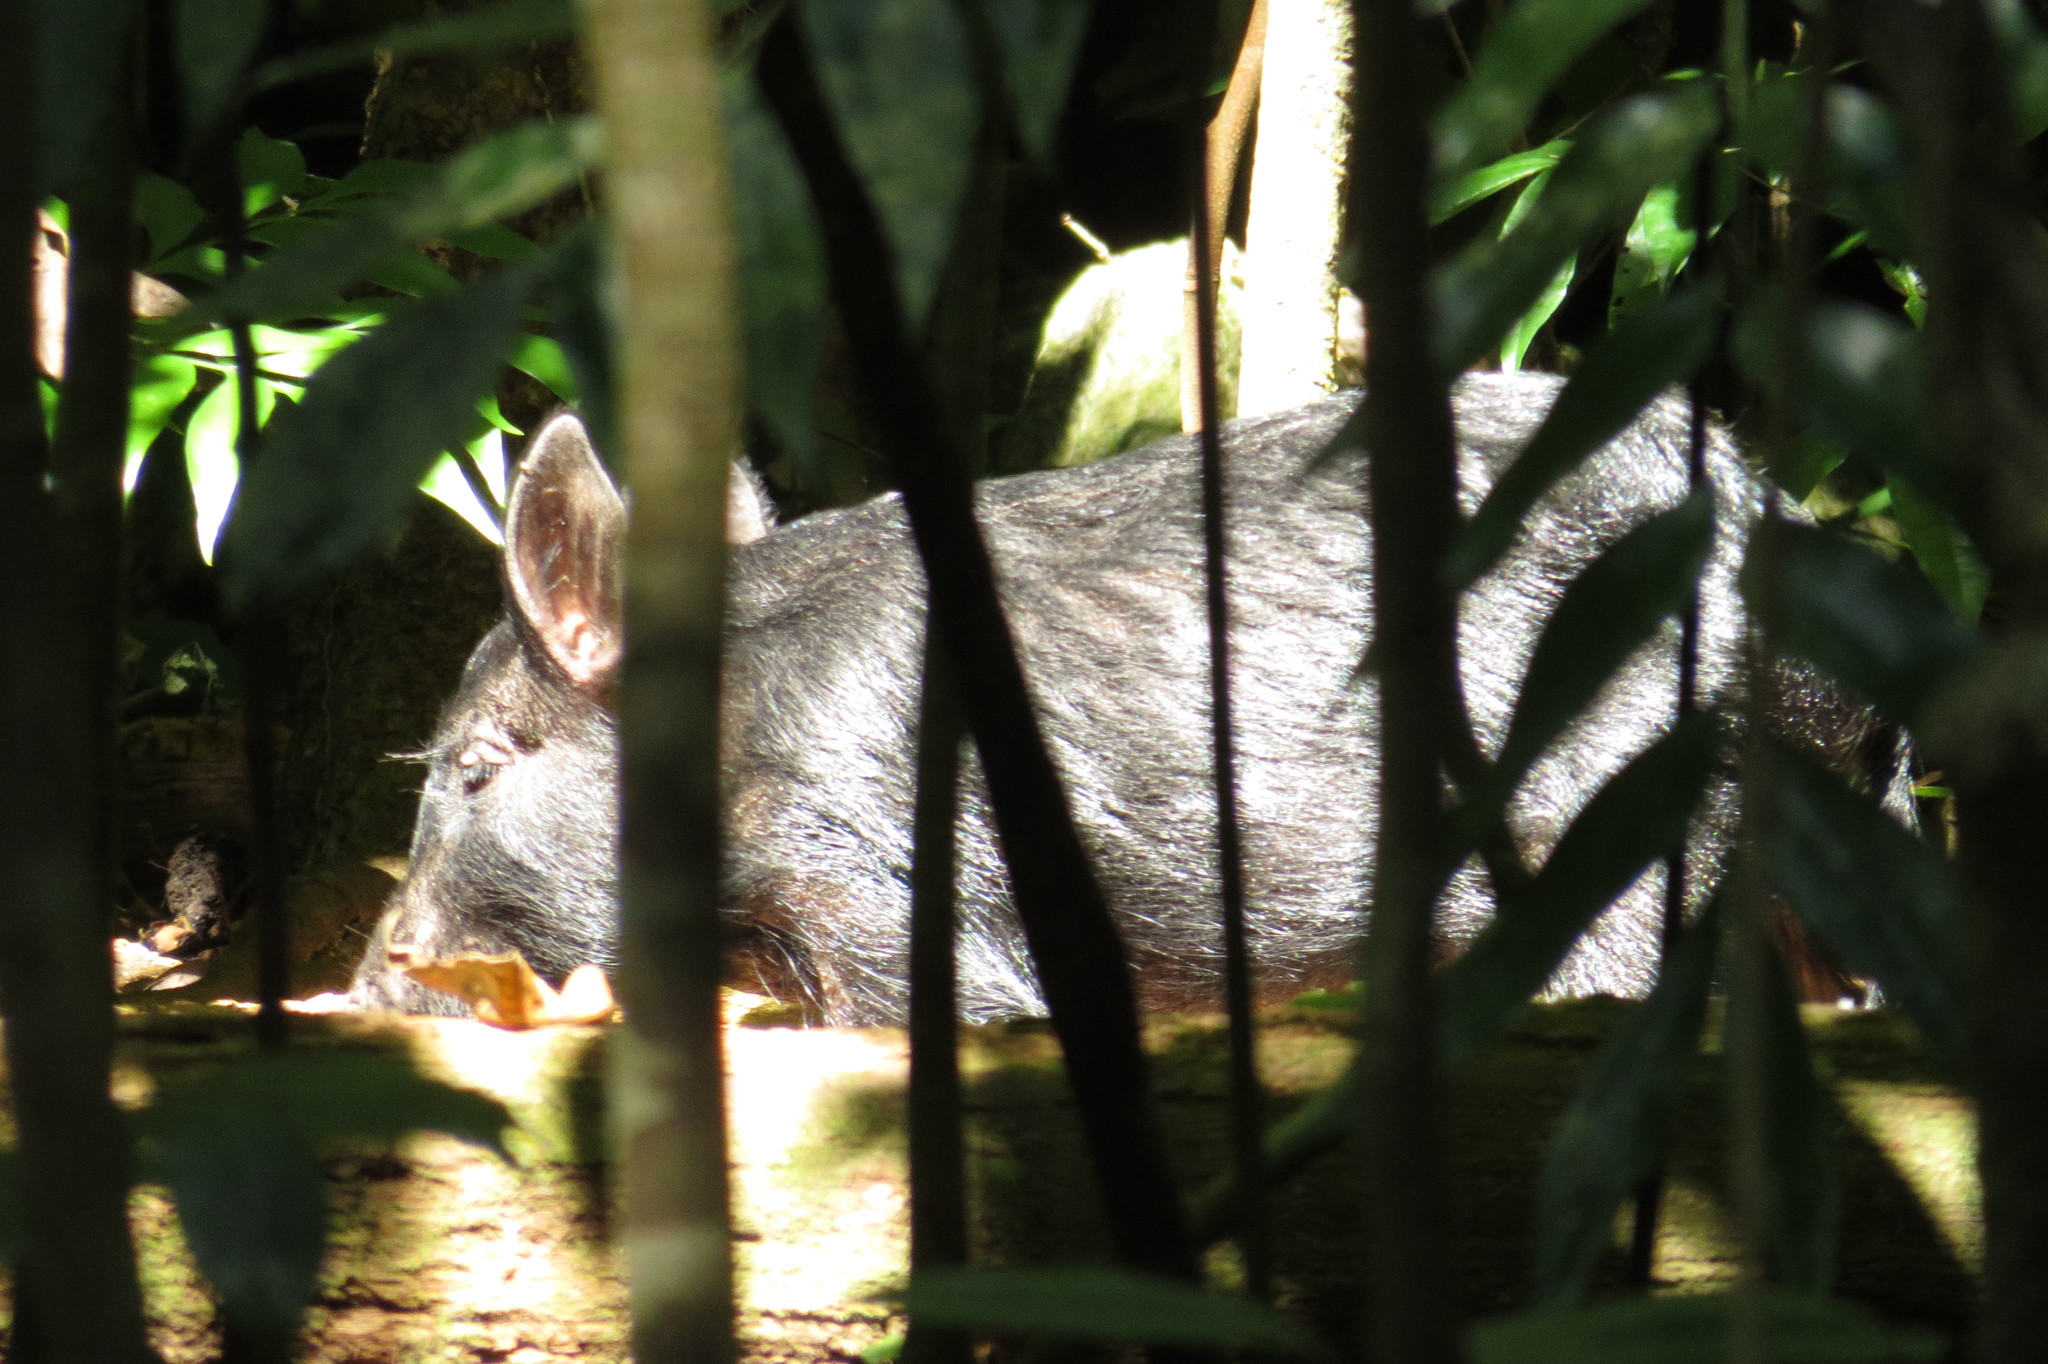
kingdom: Animalia
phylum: Chordata
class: Mammalia
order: Artiodactyla
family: Suidae
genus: Sus
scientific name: Sus scrofa
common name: Wild boar
